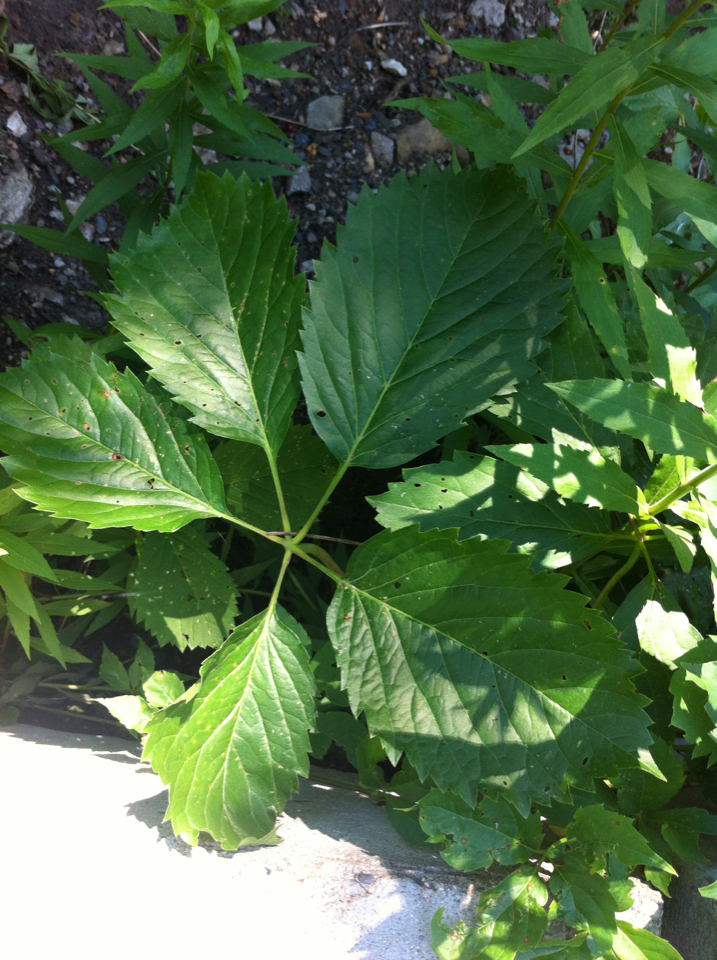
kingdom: Plantae
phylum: Tracheophyta
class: Magnoliopsida
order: Vitales
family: Vitaceae
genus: Parthenocissus
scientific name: Parthenocissus inserta
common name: False virginia-creeper
